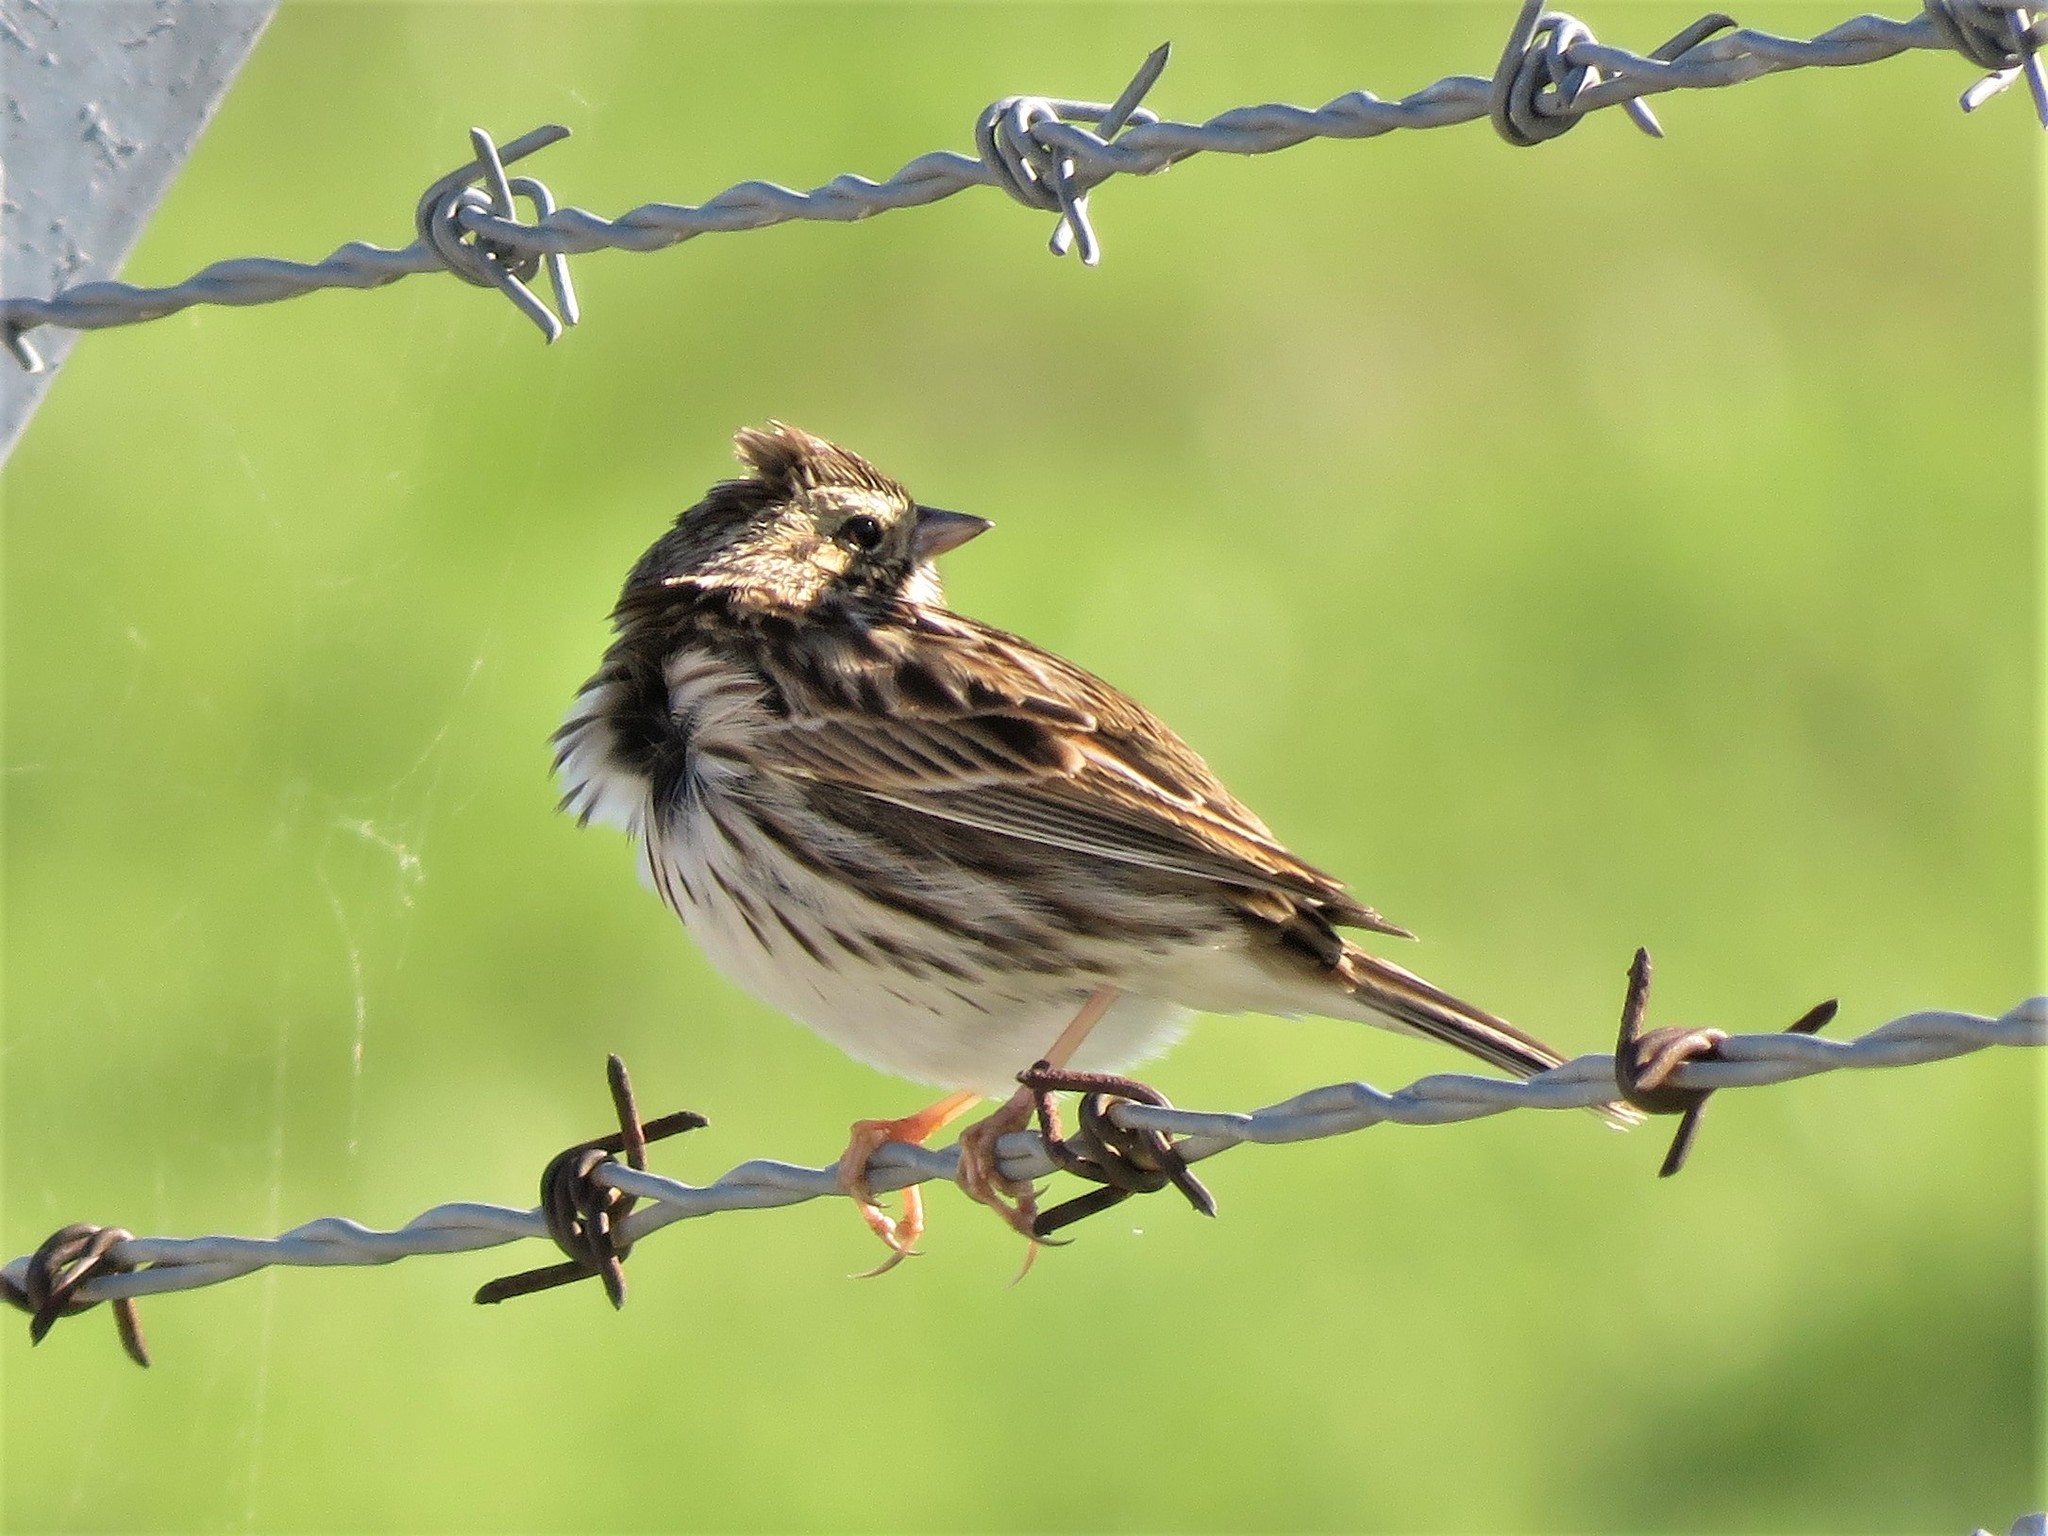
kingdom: Animalia
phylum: Chordata
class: Aves
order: Passeriformes
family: Passerellidae
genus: Passerculus
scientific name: Passerculus sandwichensis
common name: Savannah sparrow
